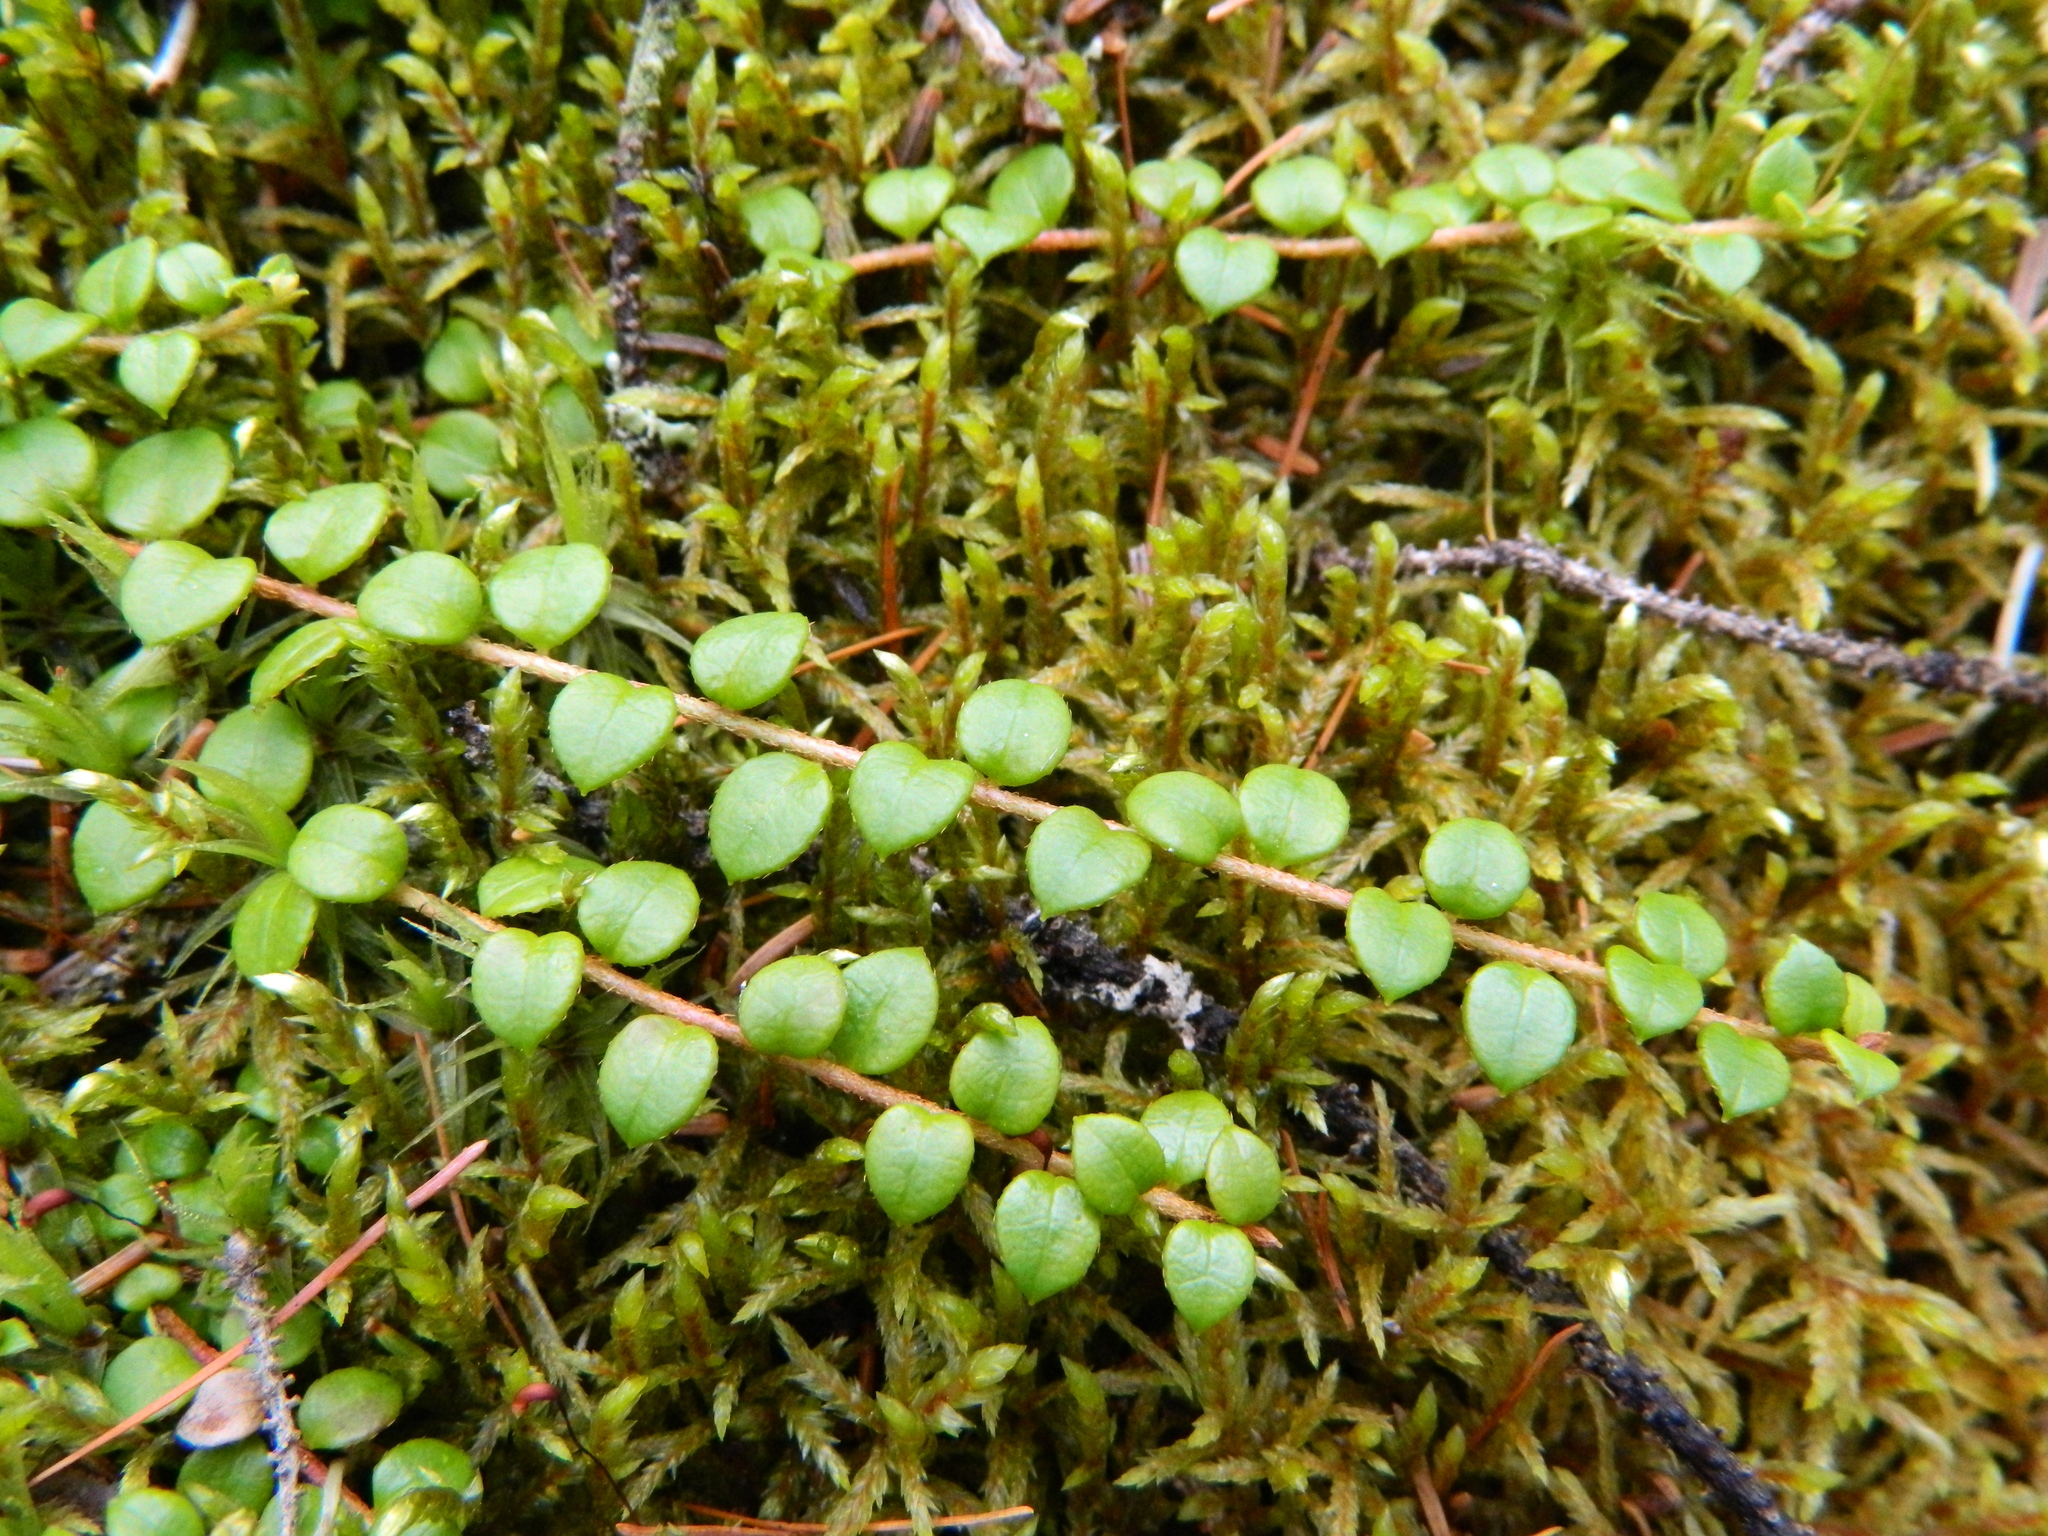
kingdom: Plantae
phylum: Tracheophyta
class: Magnoliopsida
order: Ericales
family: Ericaceae
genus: Gaultheria
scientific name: Gaultheria hispidula
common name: Cancer wintergreen
